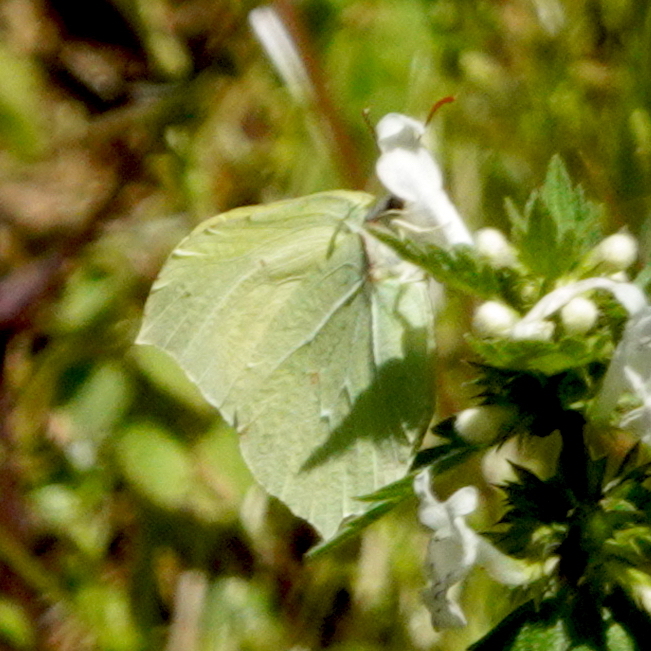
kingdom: Animalia
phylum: Arthropoda
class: Insecta
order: Lepidoptera
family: Pieridae
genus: Gonepteryx
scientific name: Gonepteryx rhamni
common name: Brimstone
